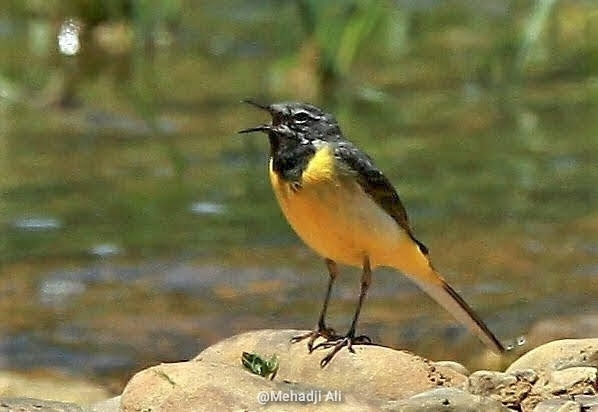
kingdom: Animalia
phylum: Chordata
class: Aves
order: Passeriformes
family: Motacillidae
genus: Motacilla
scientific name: Motacilla cinerea
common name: Grey wagtail
